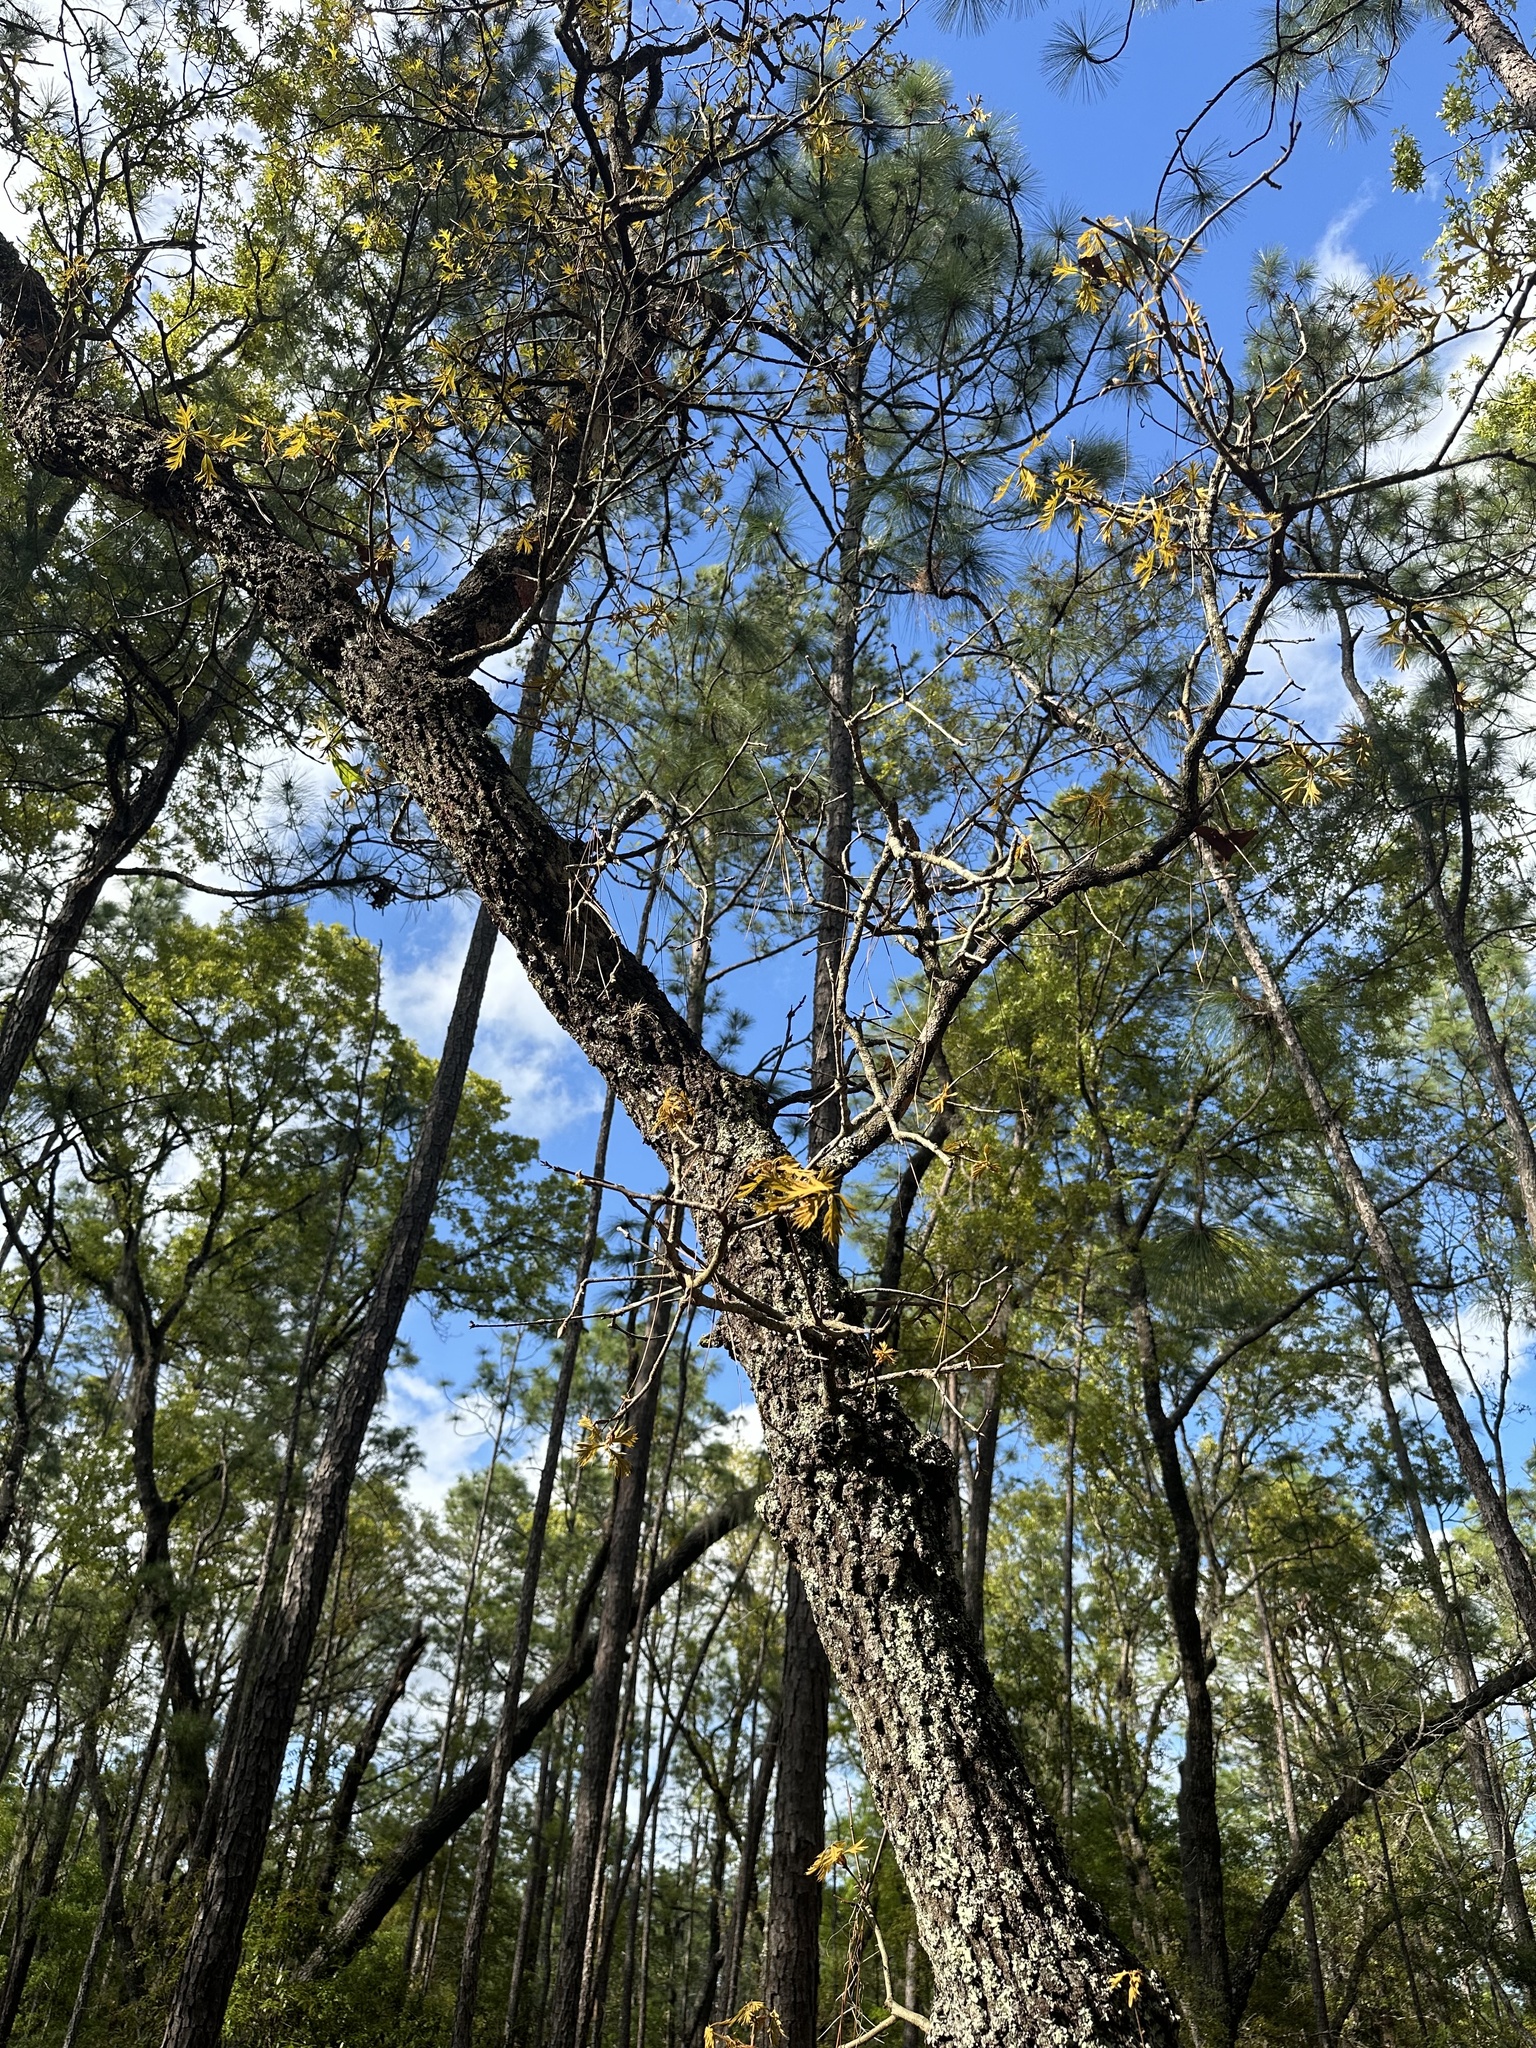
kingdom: Plantae
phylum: Tracheophyta
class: Magnoliopsida
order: Fagales
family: Fagaceae
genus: Quercus
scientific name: Quercus laevis
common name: Turkey oak
